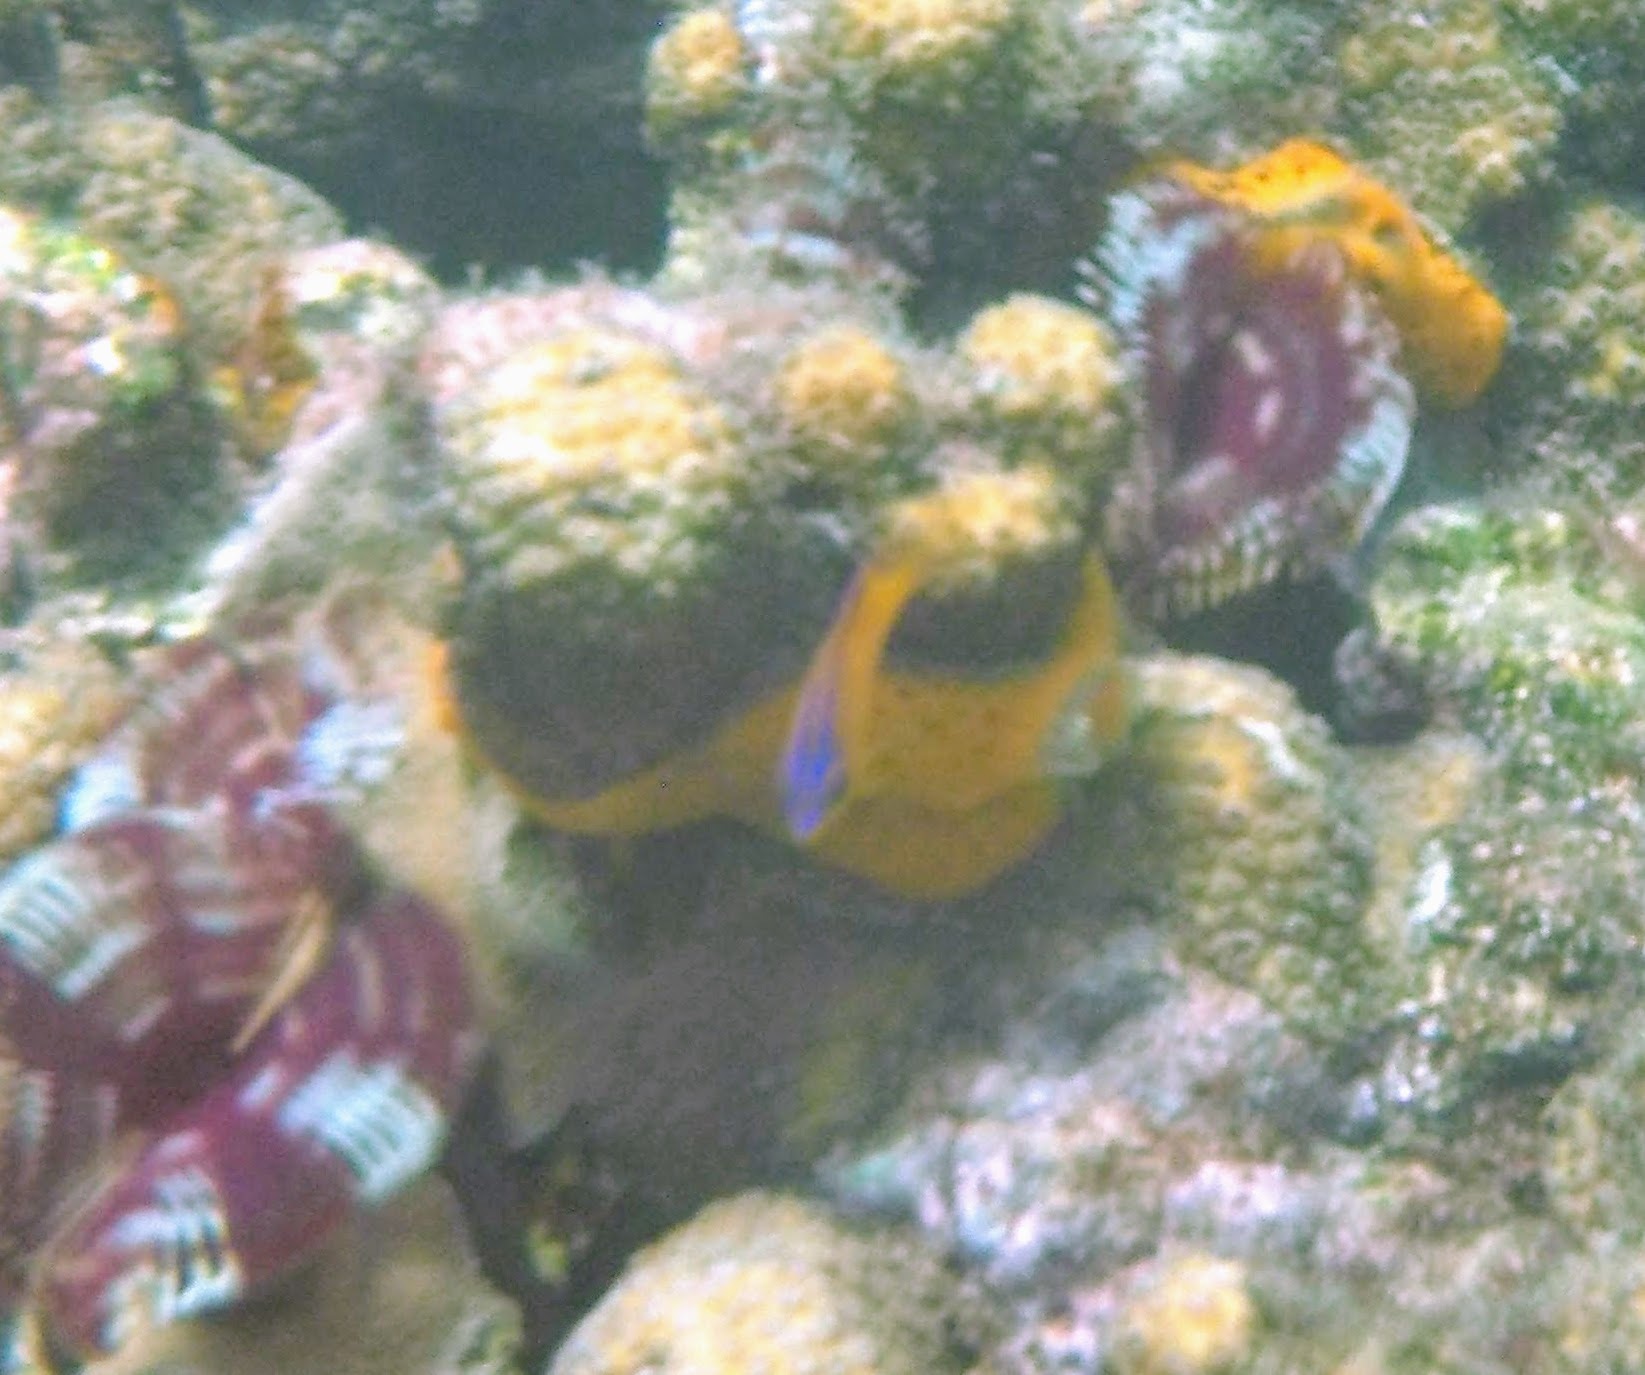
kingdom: Animalia
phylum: Chordata
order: Perciformes
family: Pomacentridae
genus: Stegastes
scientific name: Stegastes diencaeus
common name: Longfin damselfish
